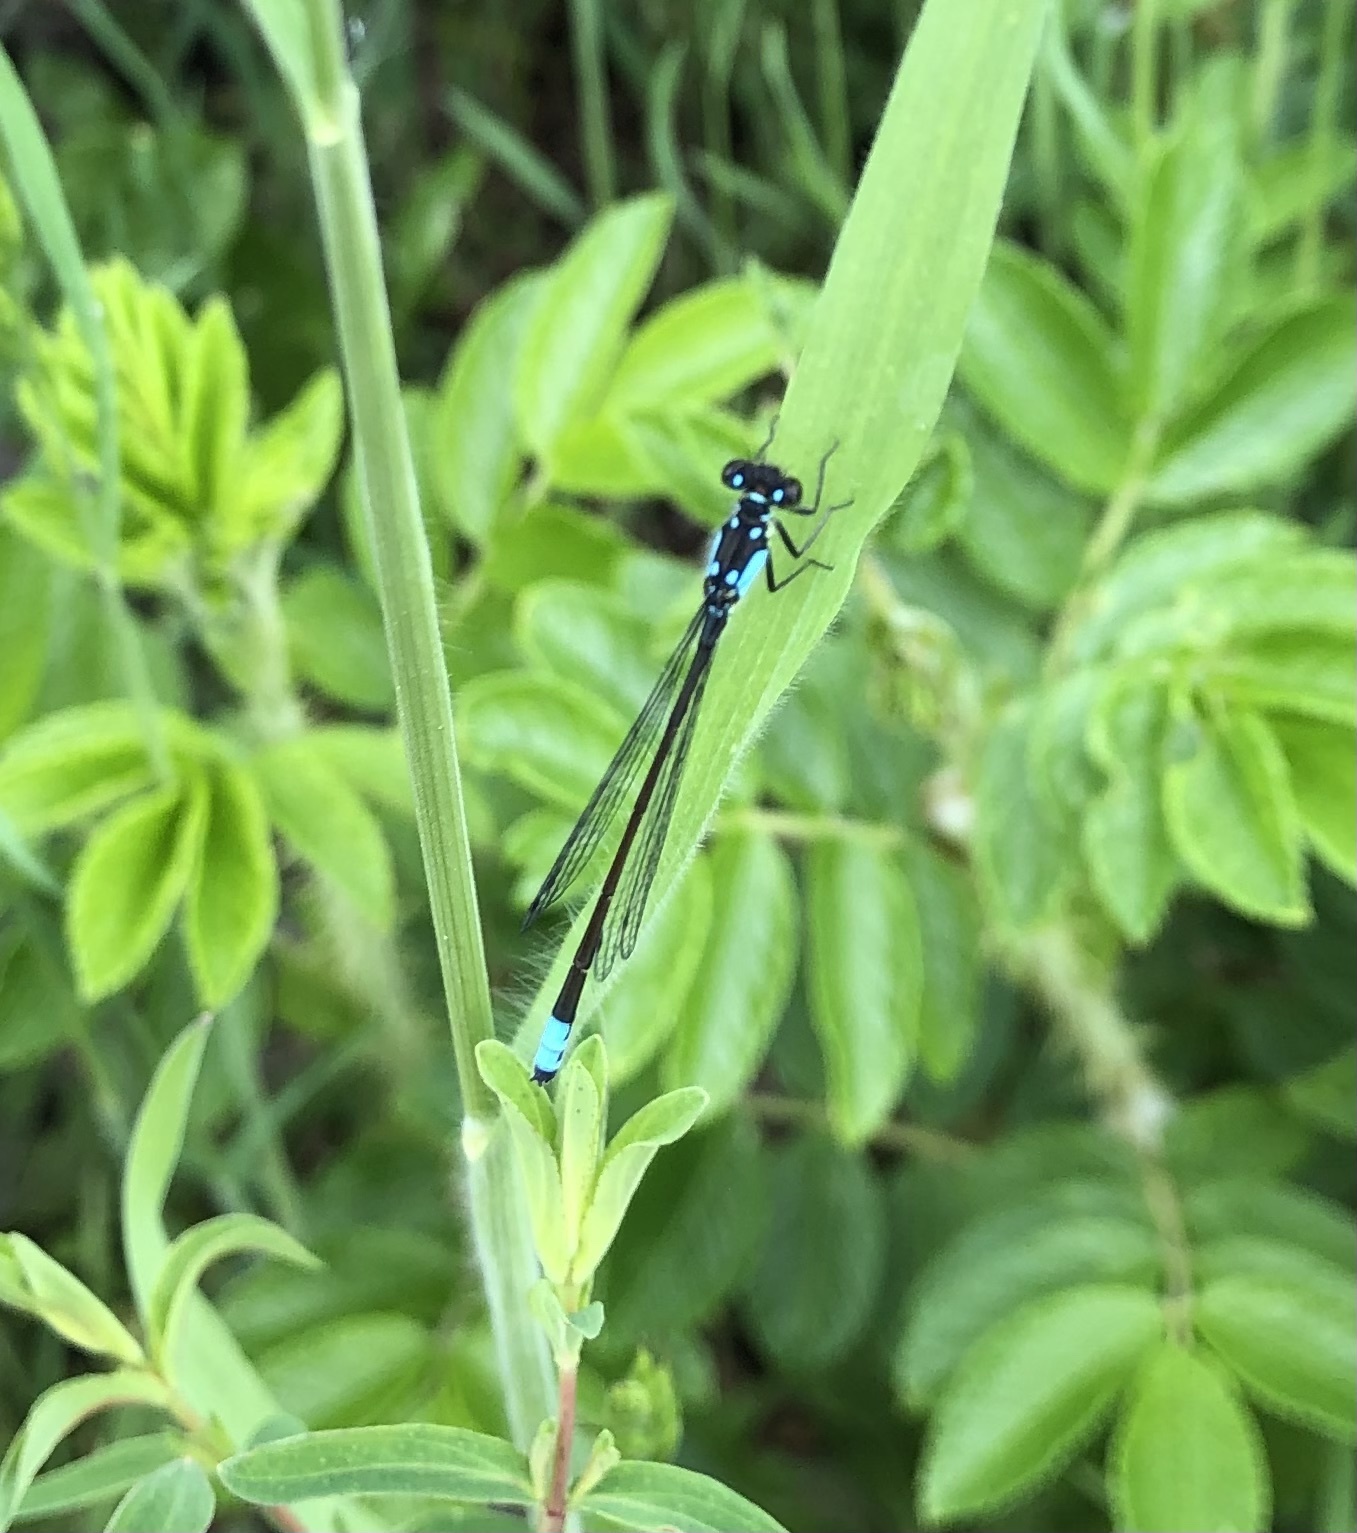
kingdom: Animalia
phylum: Arthropoda
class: Insecta
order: Odonata
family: Coenagrionidae
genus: Ischnura
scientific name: Ischnura cervula
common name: Pacific forktail
